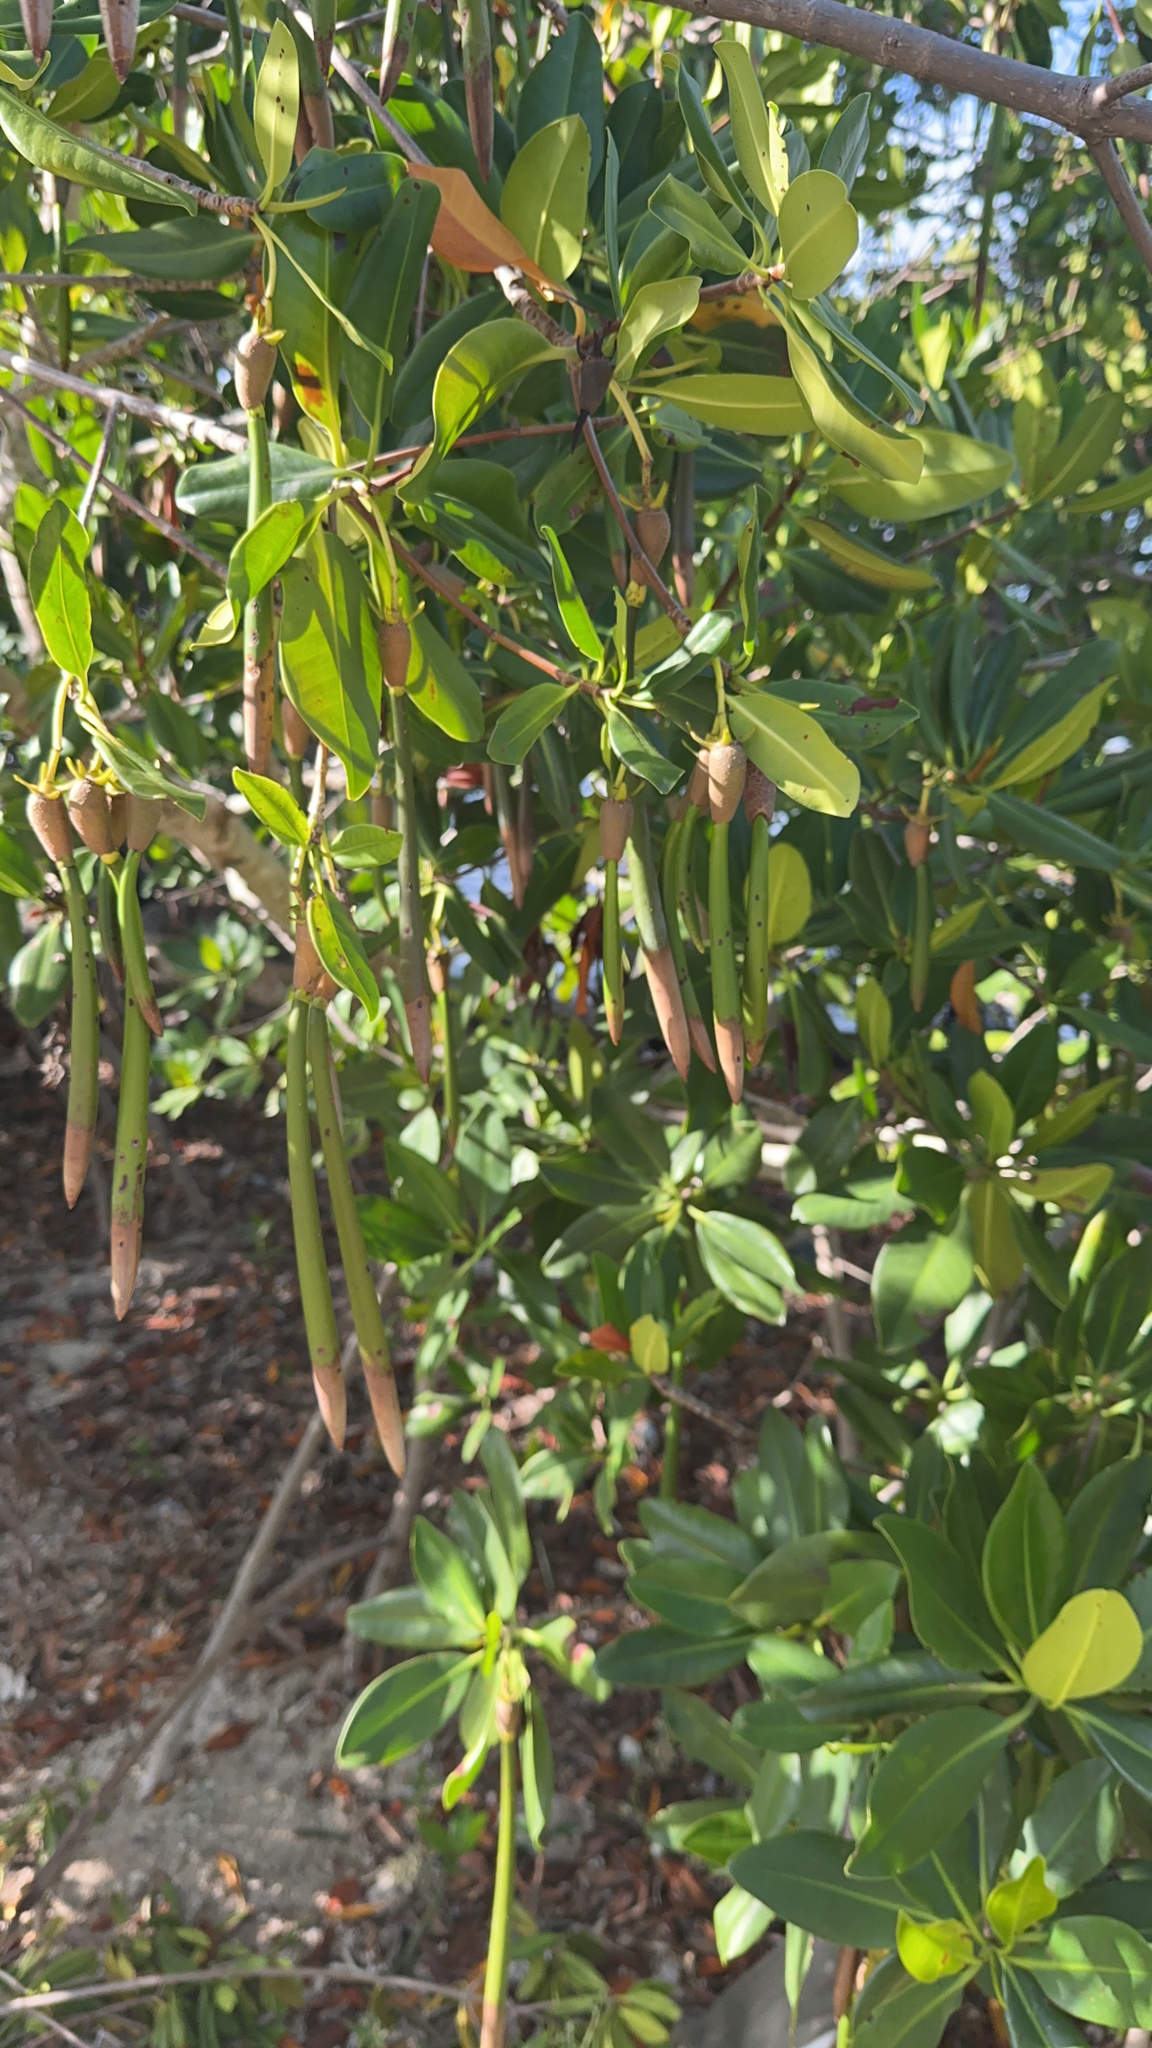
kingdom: Plantae
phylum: Tracheophyta
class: Magnoliopsida
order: Malpighiales
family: Rhizophoraceae
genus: Rhizophora
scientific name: Rhizophora mangle
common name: Red mangrove
